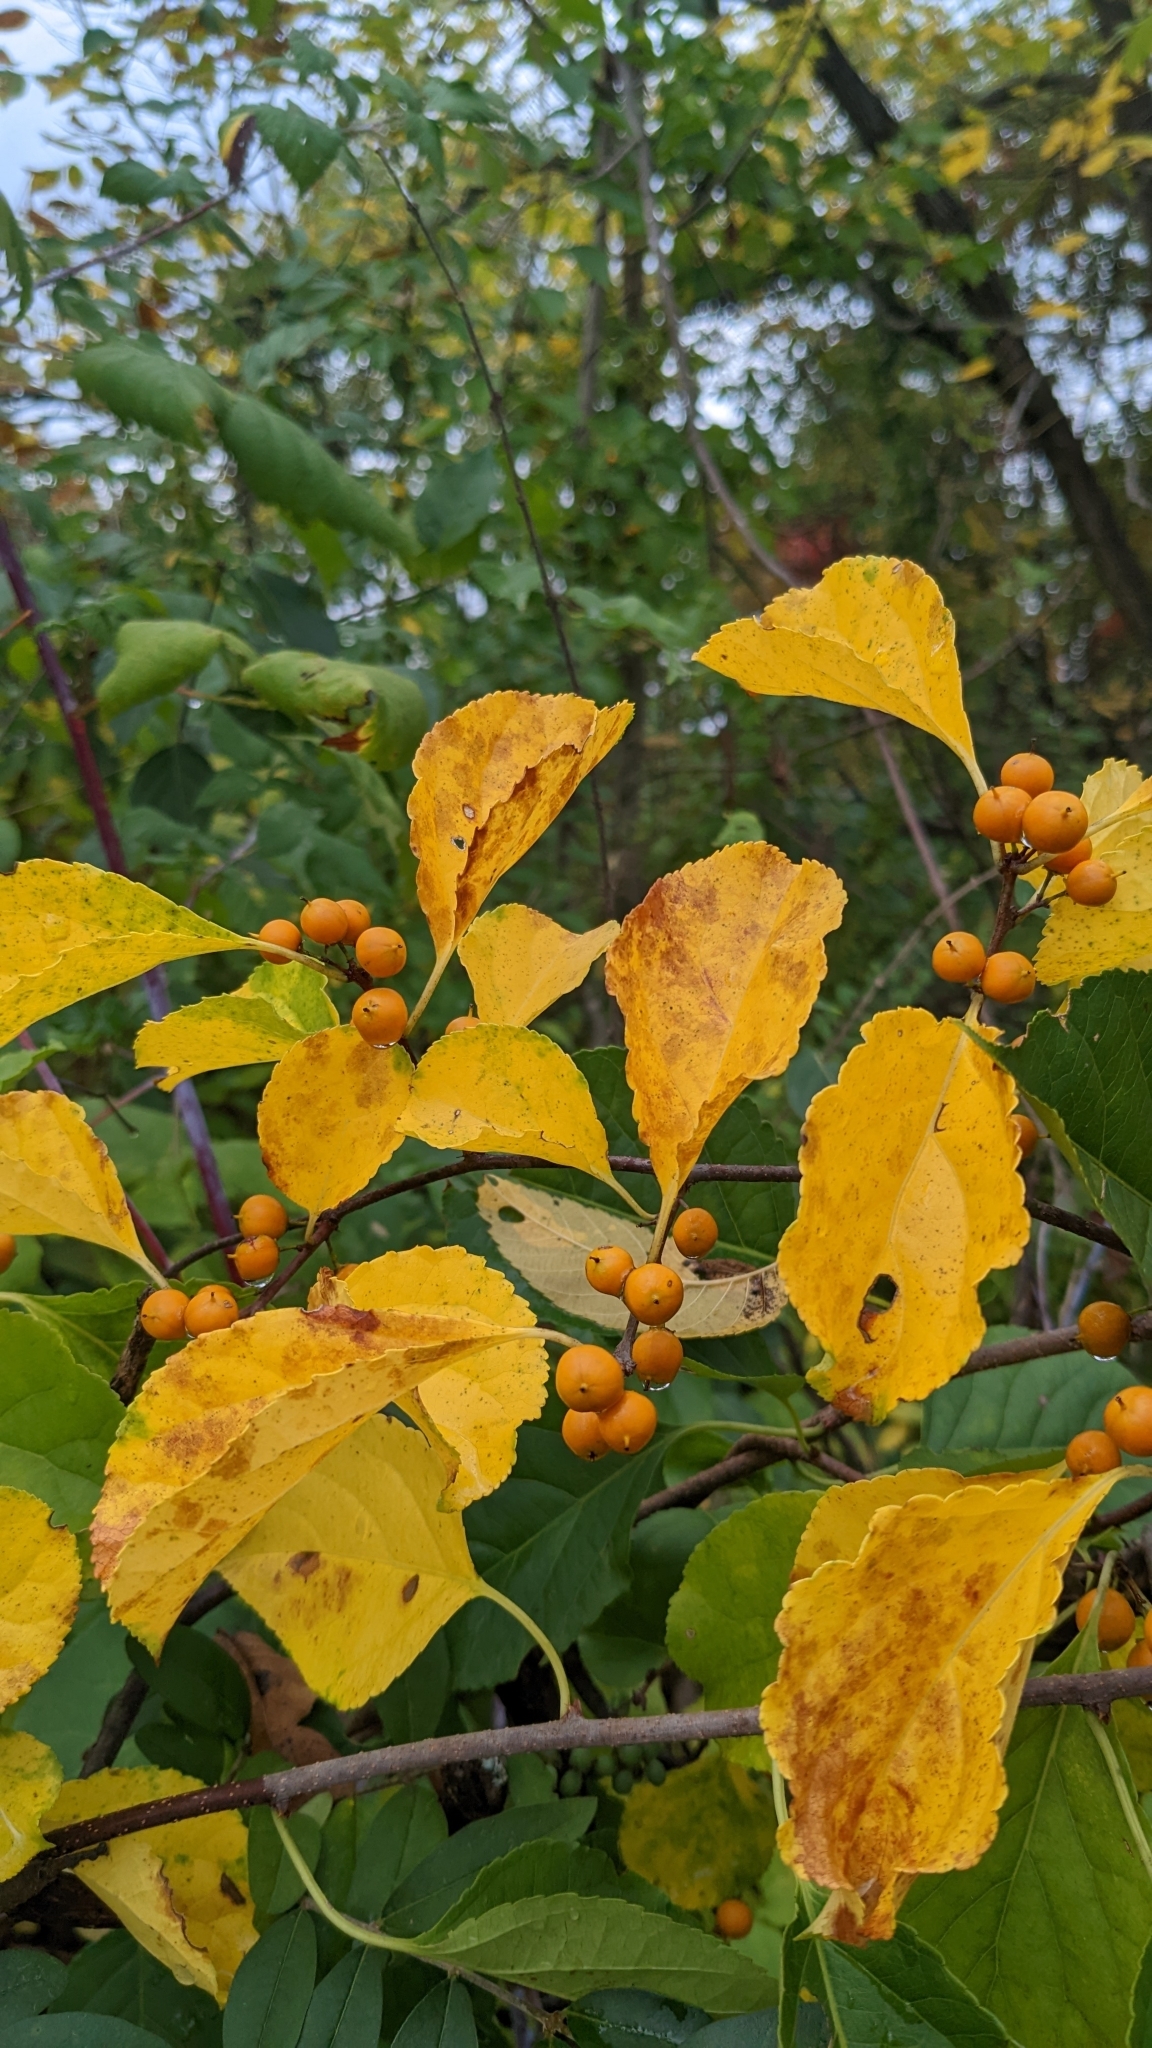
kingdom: Plantae
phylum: Tracheophyta
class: Magnoliopsida
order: Celastrales
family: Celastraceae
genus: Celastrus
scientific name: Celastrus orbiculatus
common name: Oriental bittersweet
